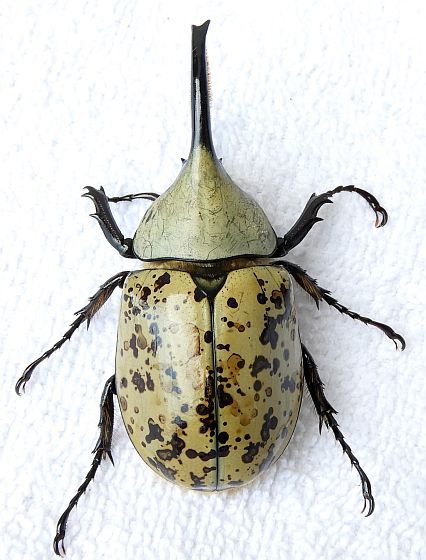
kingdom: Animalia
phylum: Arthropoda
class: Insecta
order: Coleoptera
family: Scarabaeidae
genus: Dynastes
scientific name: Dynastes grantii
